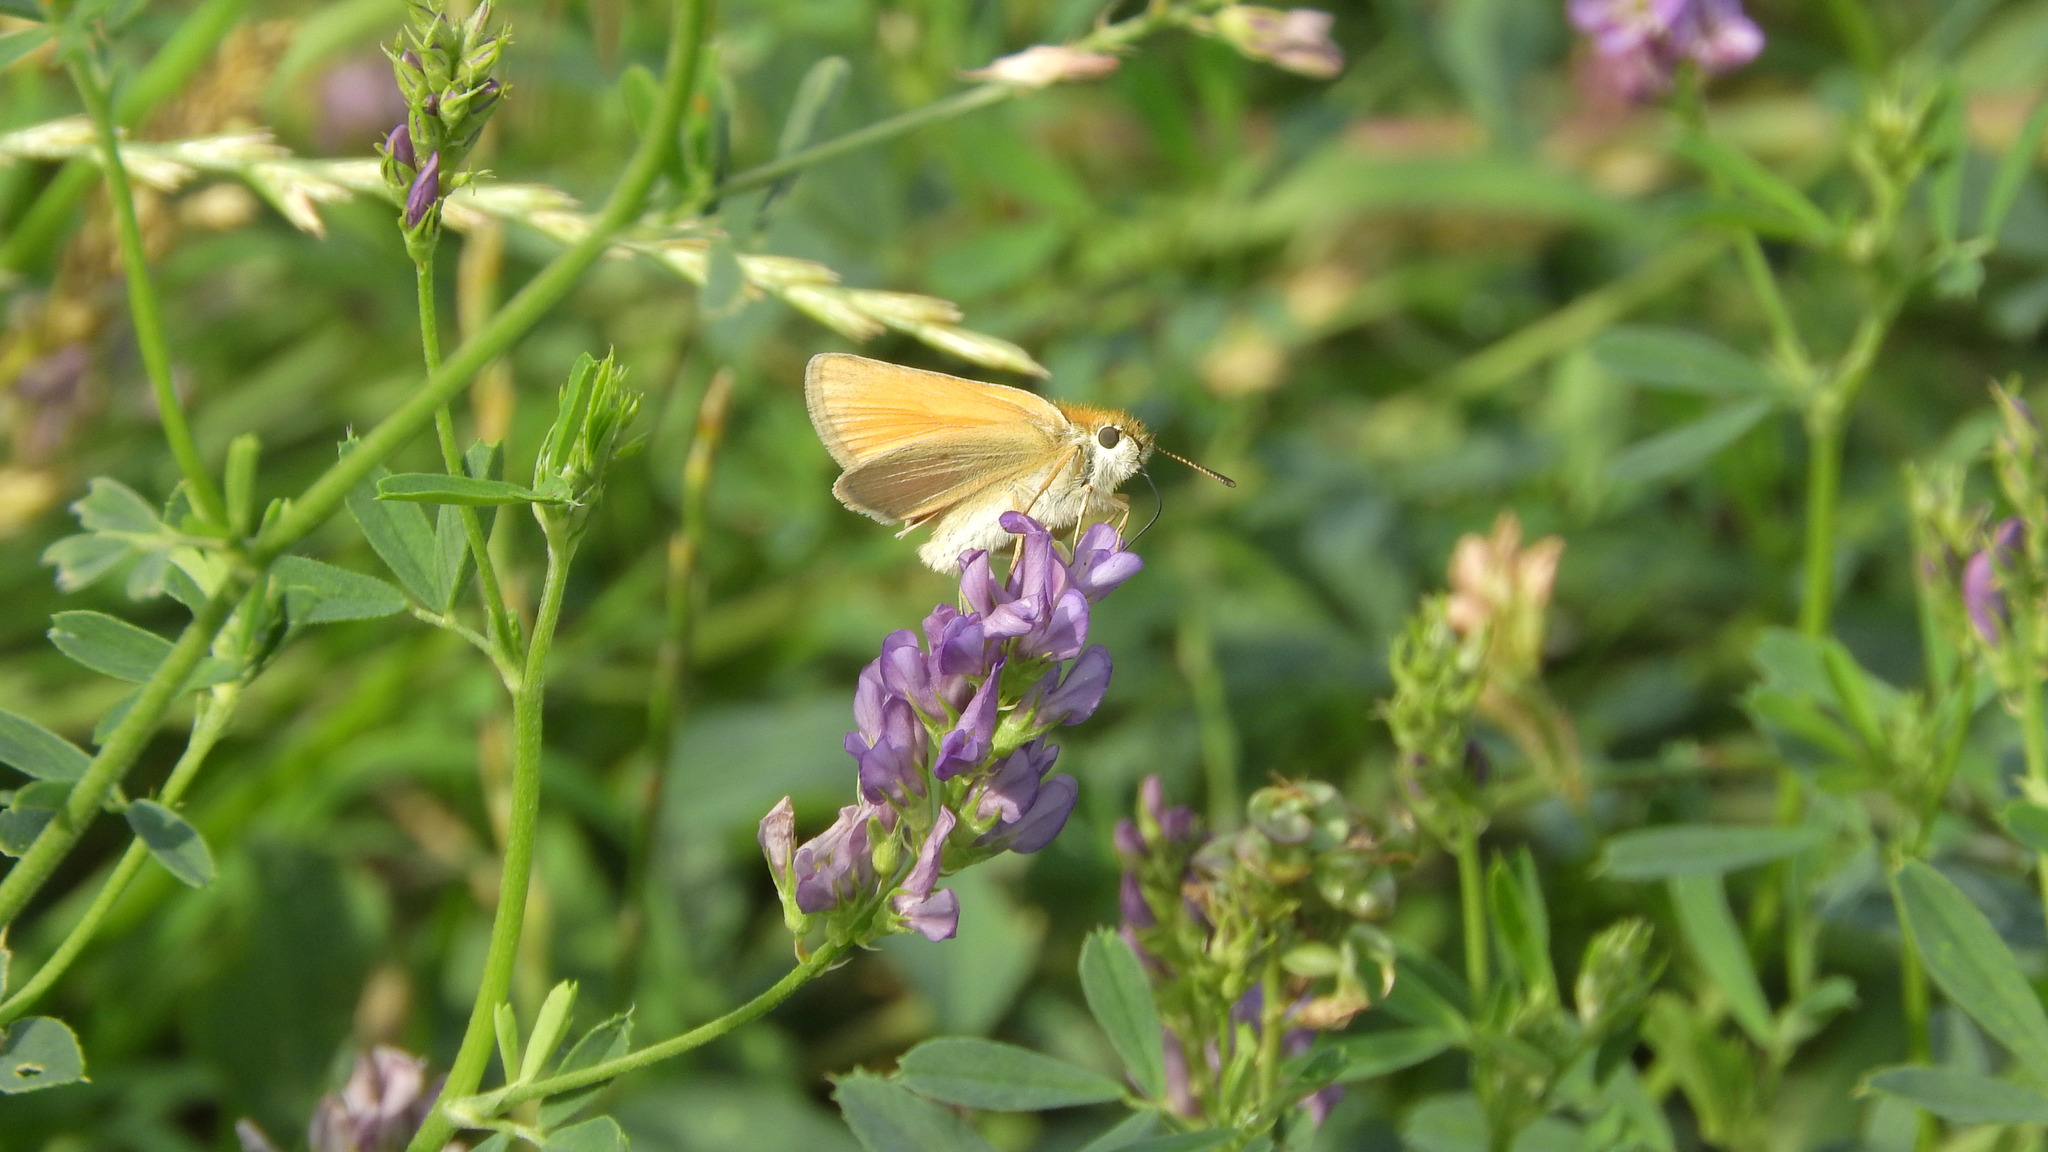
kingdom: Animalia
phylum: Arthropoda
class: Insecta
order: Lepidoptera
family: Hesperiidae
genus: Thymelicus
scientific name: Thymelicus lineola
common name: Essex skipper
